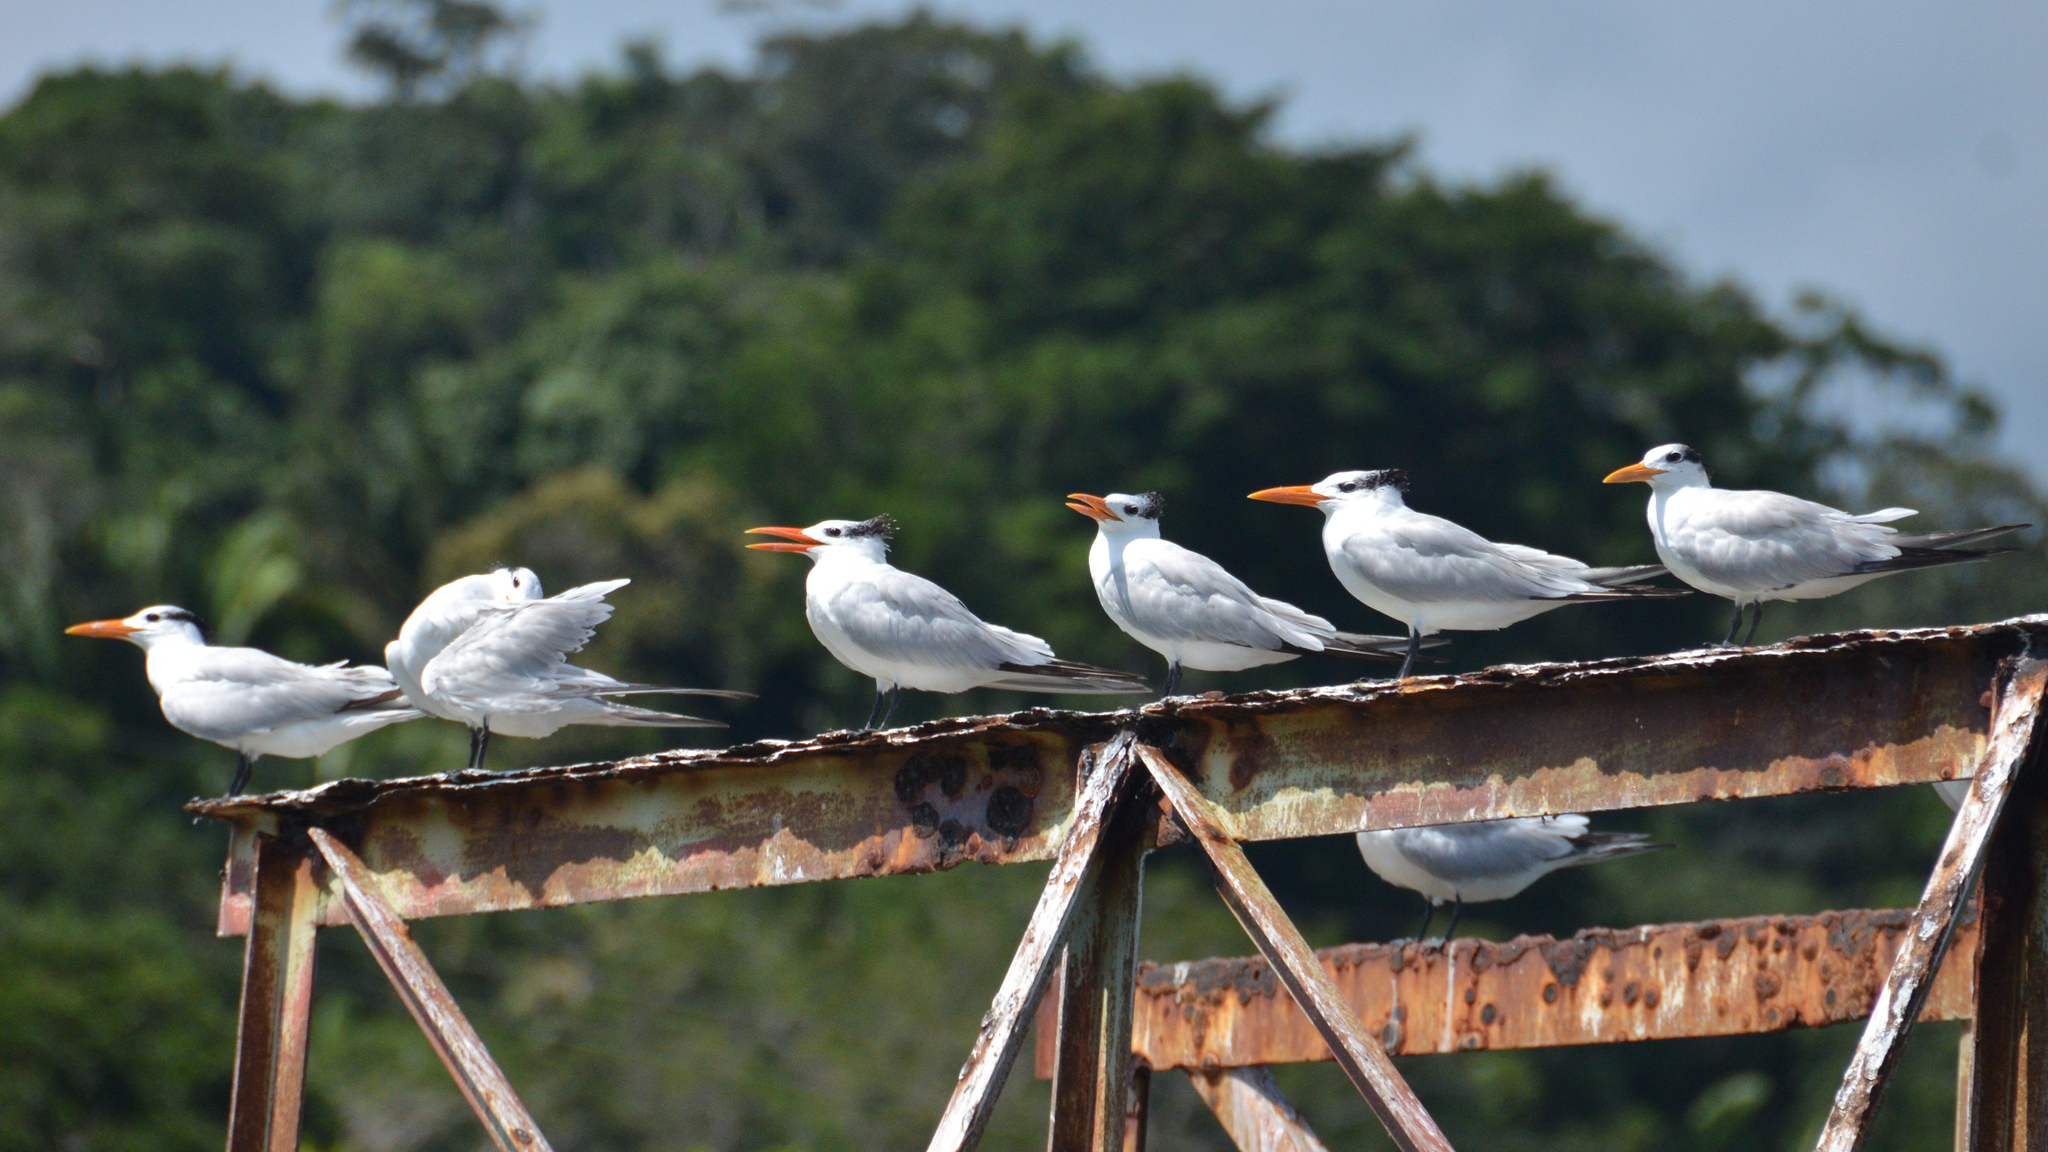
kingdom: Animalia
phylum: Chordata
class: Aves
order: Charadriiformes
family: Laridae
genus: Thalasseus
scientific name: Thalasseus maximus
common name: Royal tern
